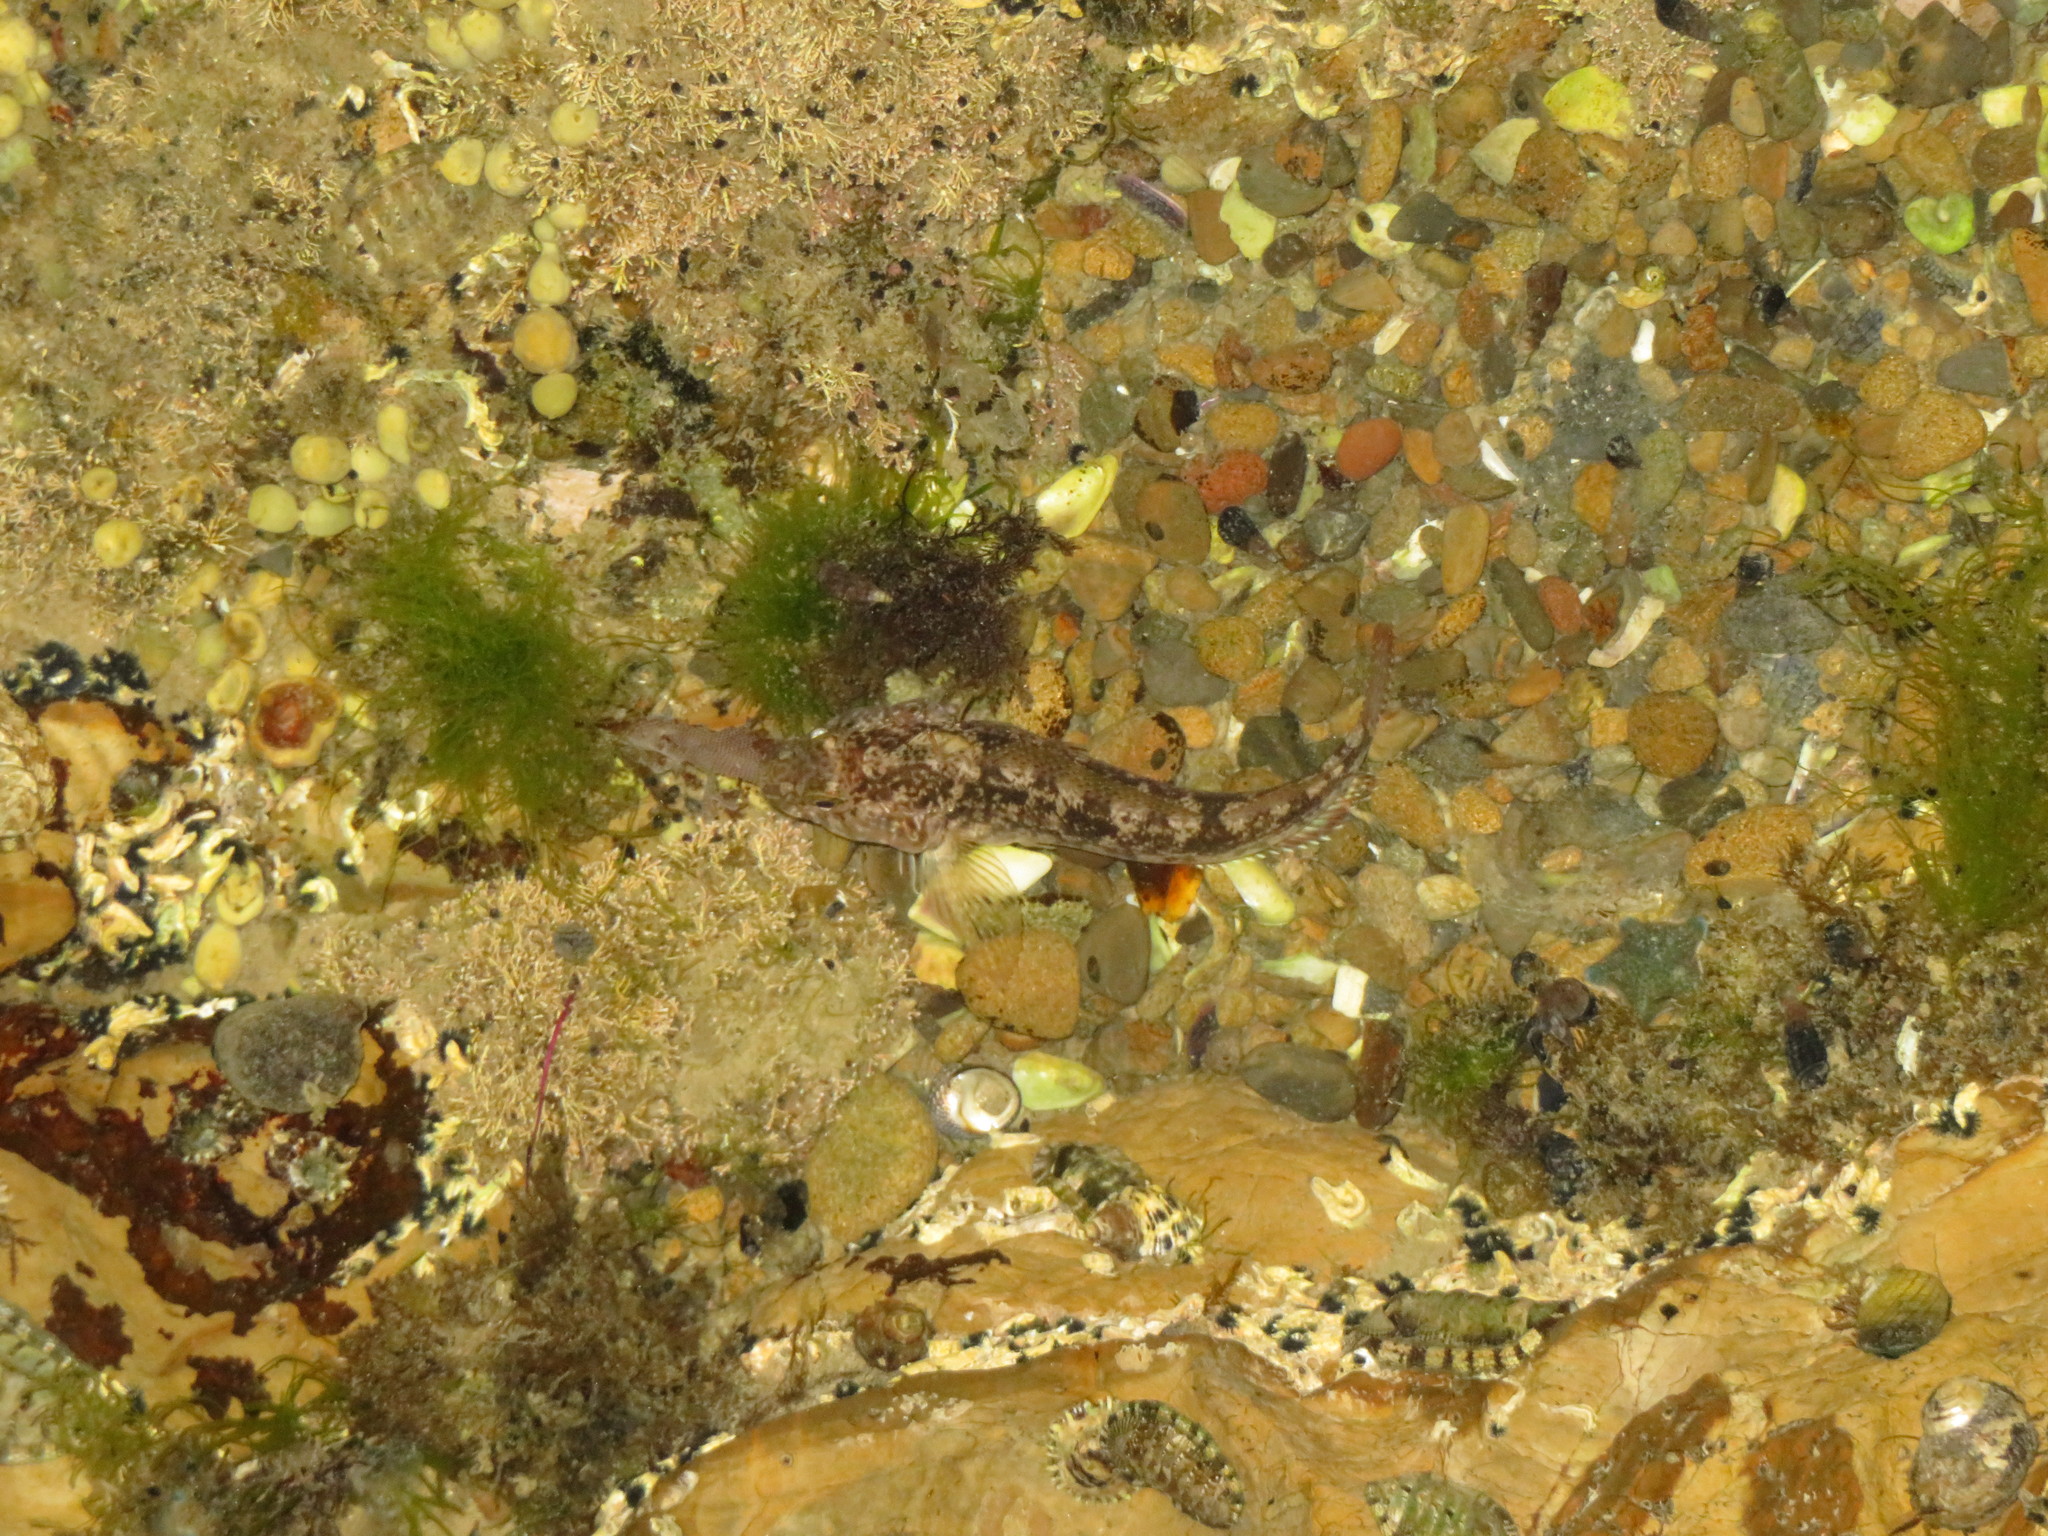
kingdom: Animalia
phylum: Chordata
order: Perciformes
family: Tripterygiidae
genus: Forsterygion
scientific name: Forsterygion capito
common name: Spotted robust triplefin
